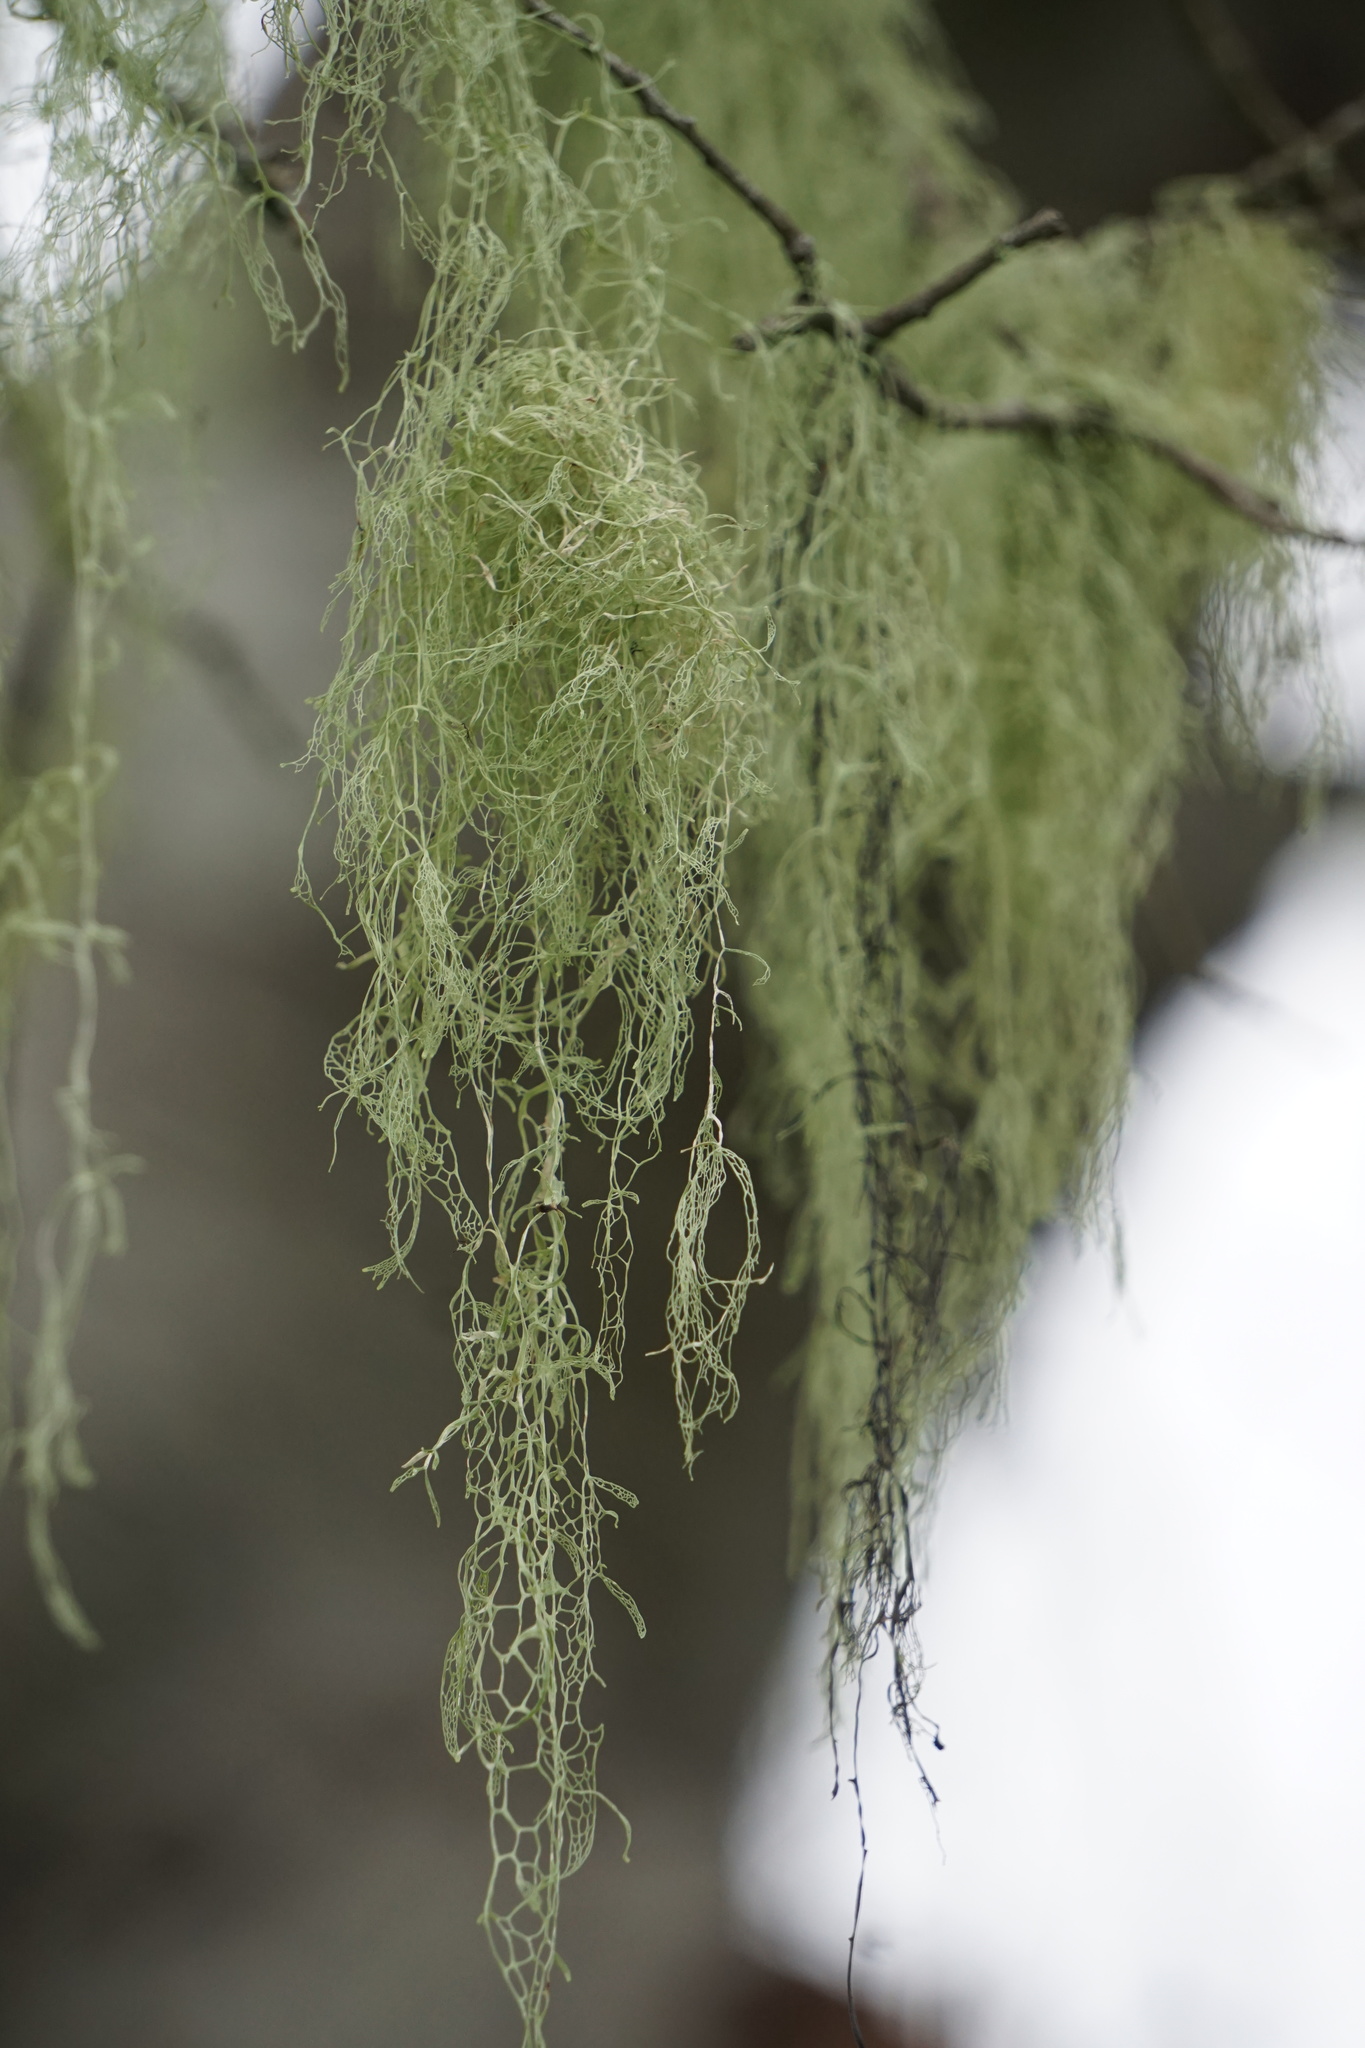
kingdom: Fungi
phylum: Ascomycota
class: Lecanoromycetes
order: Lecanorales
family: Ramalinaceae
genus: Ramalina
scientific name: Ramalina menziesii
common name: Lace lichen
